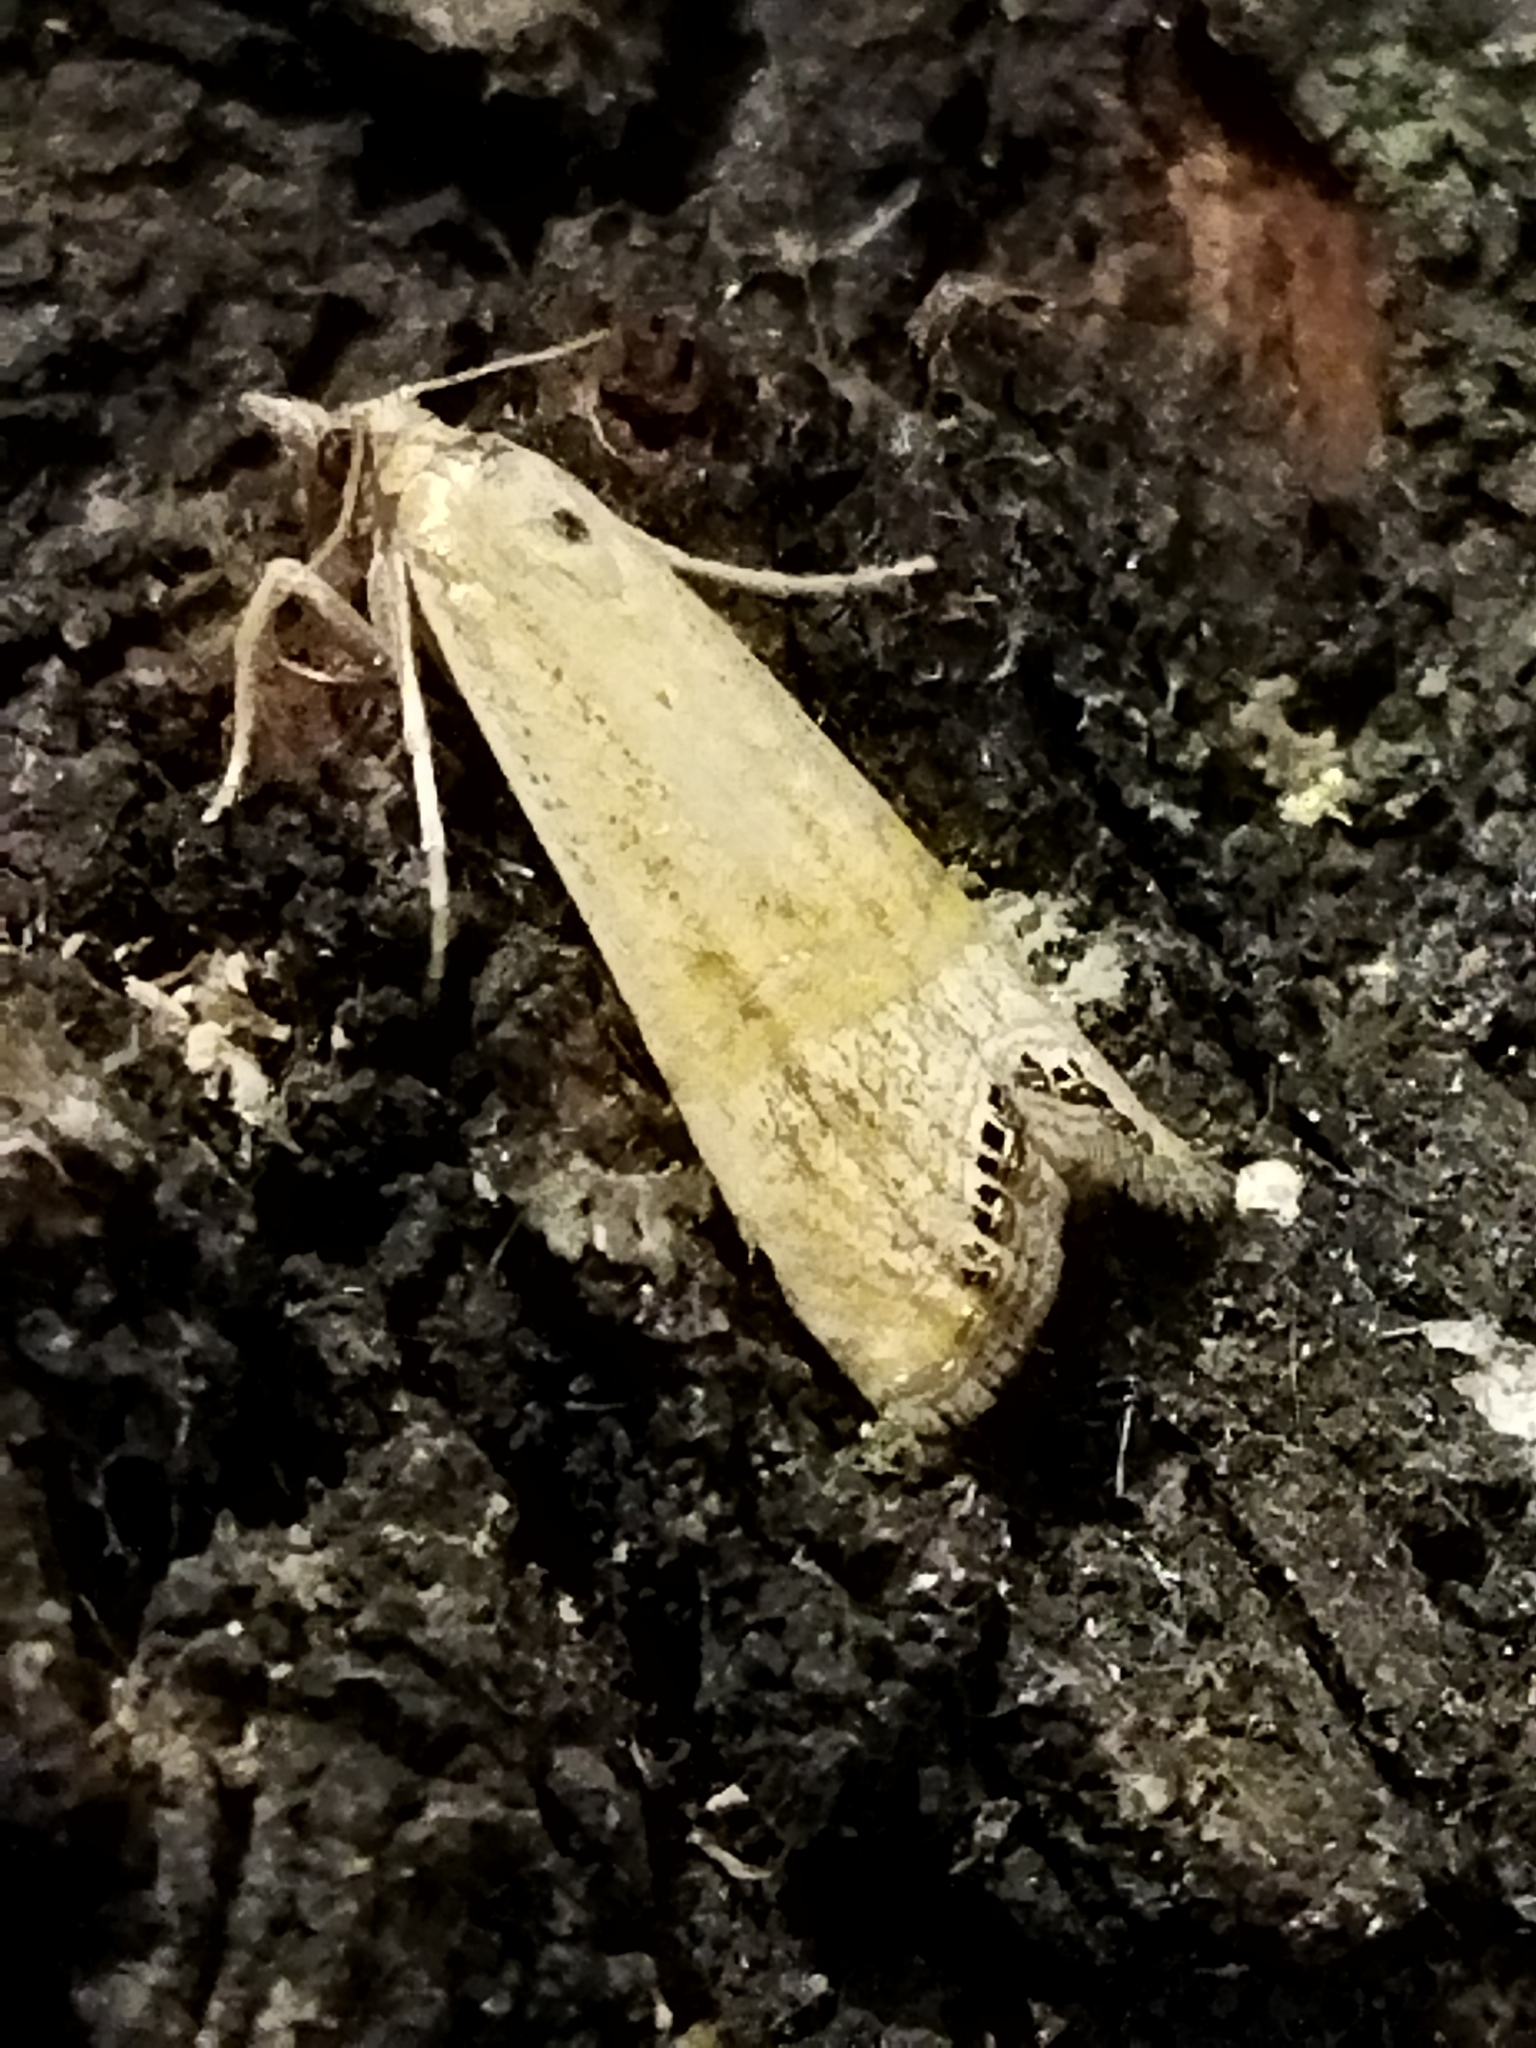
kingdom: Animalia
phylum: Arthropoda
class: Insecta
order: Lepidoptera
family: Crambidae
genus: Euchromius
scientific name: Euchromius ocellea
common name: Necklace veneer moth
